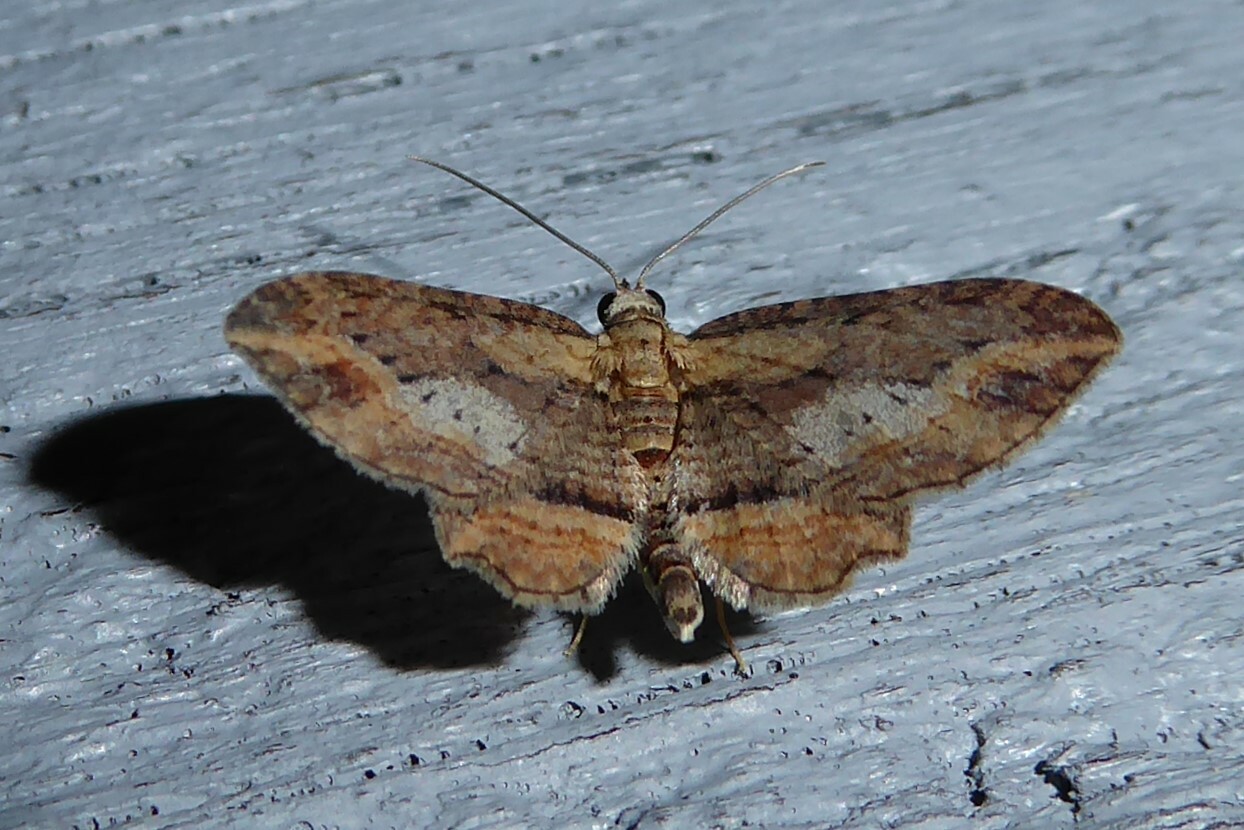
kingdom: Animalia
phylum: Arthropoda
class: Insecta
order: Lepidoptera
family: Geometridae
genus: Chloroclystis
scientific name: Chloroclystis filata
